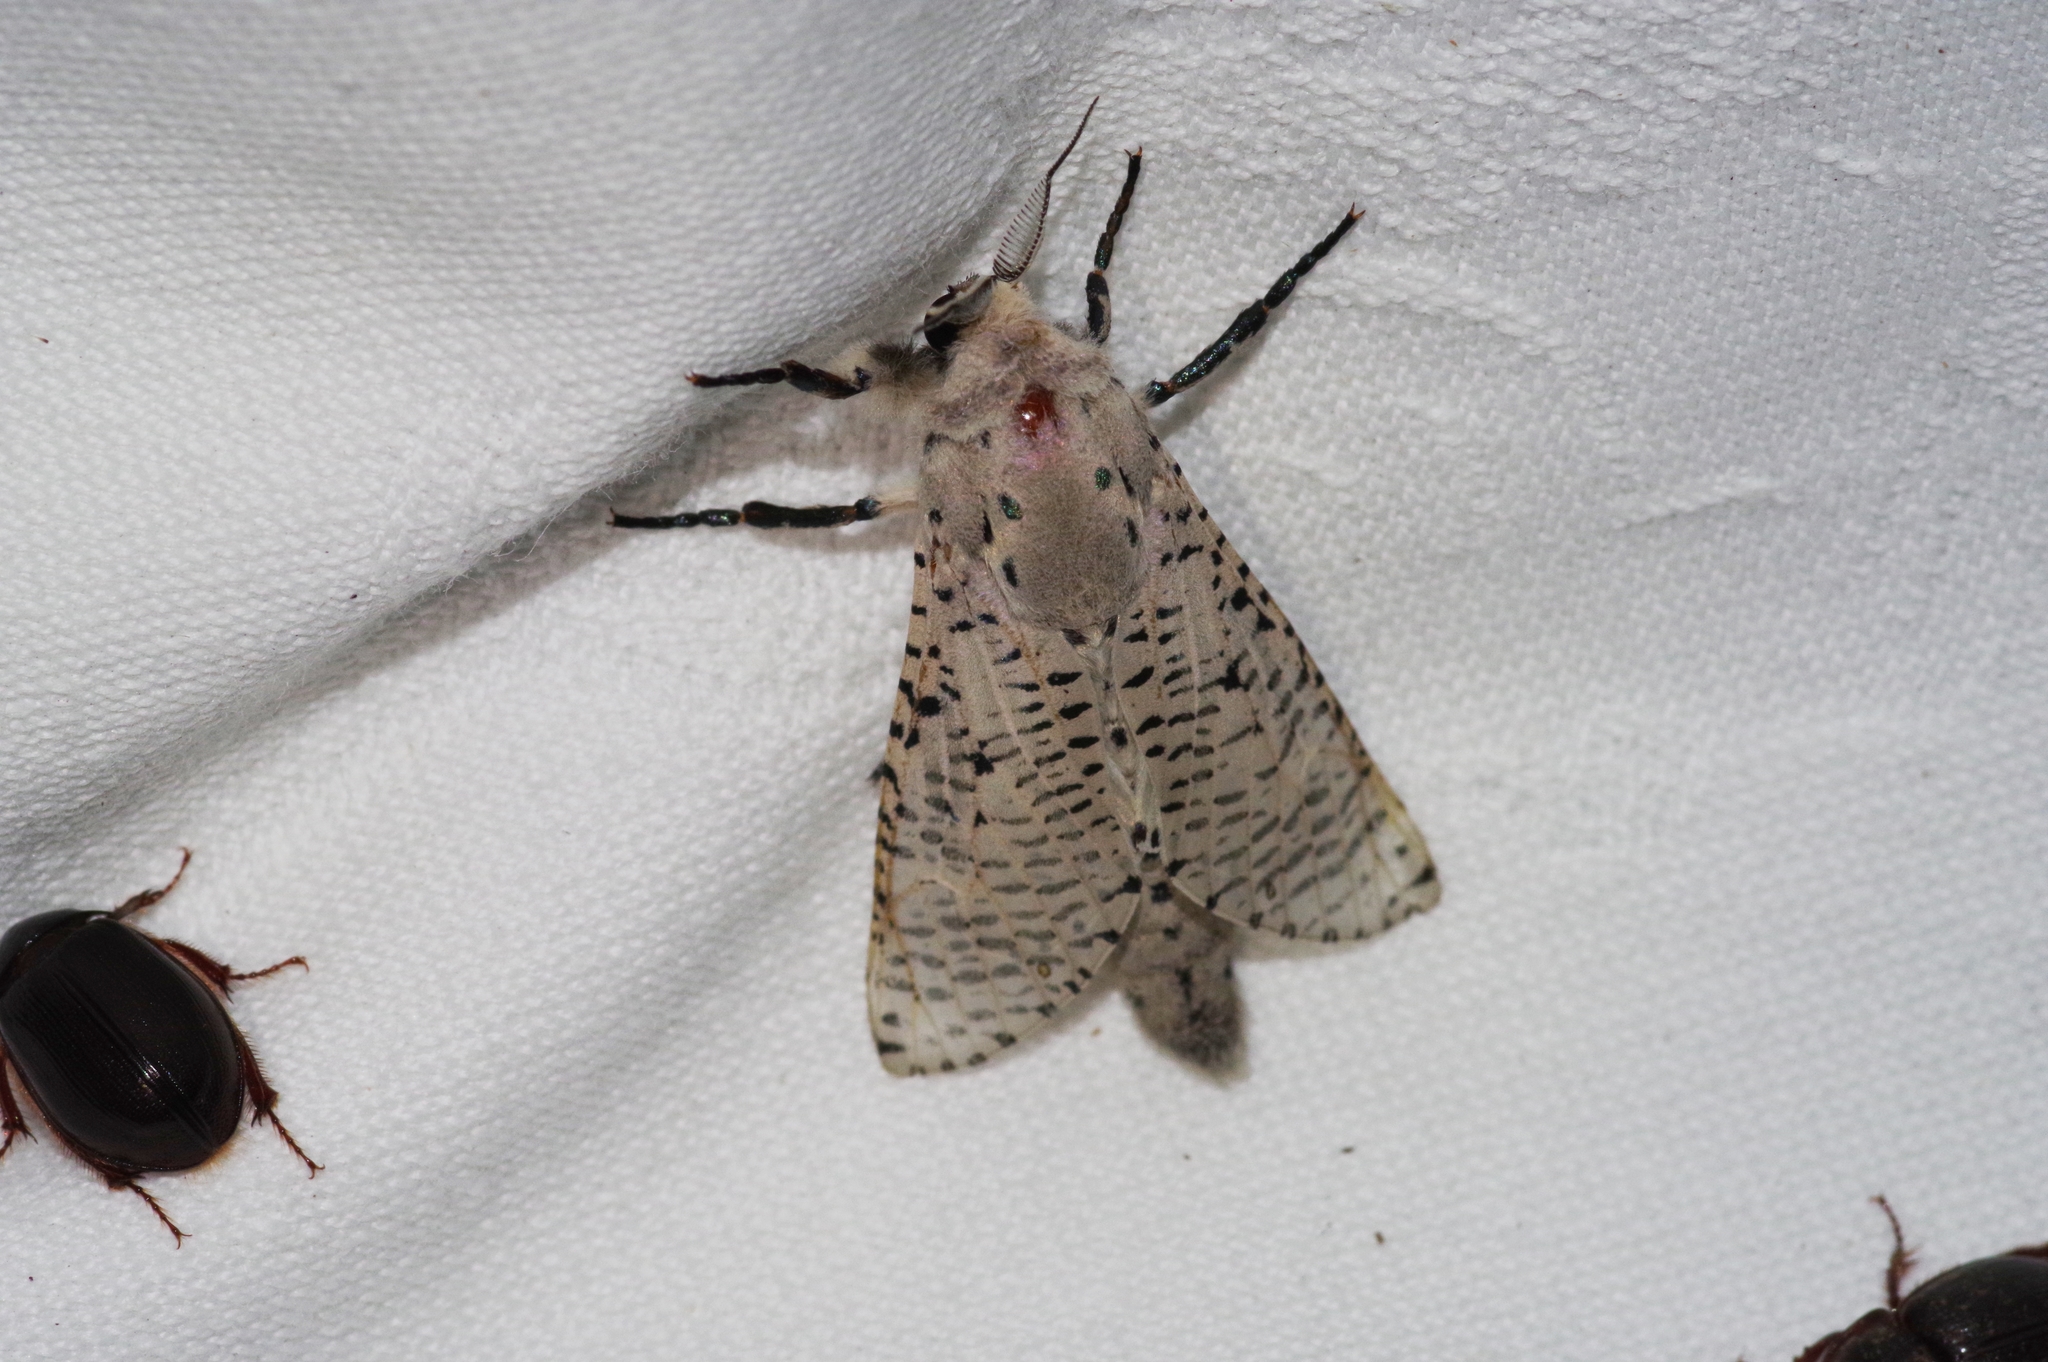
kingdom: Animalia
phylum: Arthropoda
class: Insecta
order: Lepidoptera
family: Cossidae
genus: Orientozeuzera
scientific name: Orientozeuzera caudata
